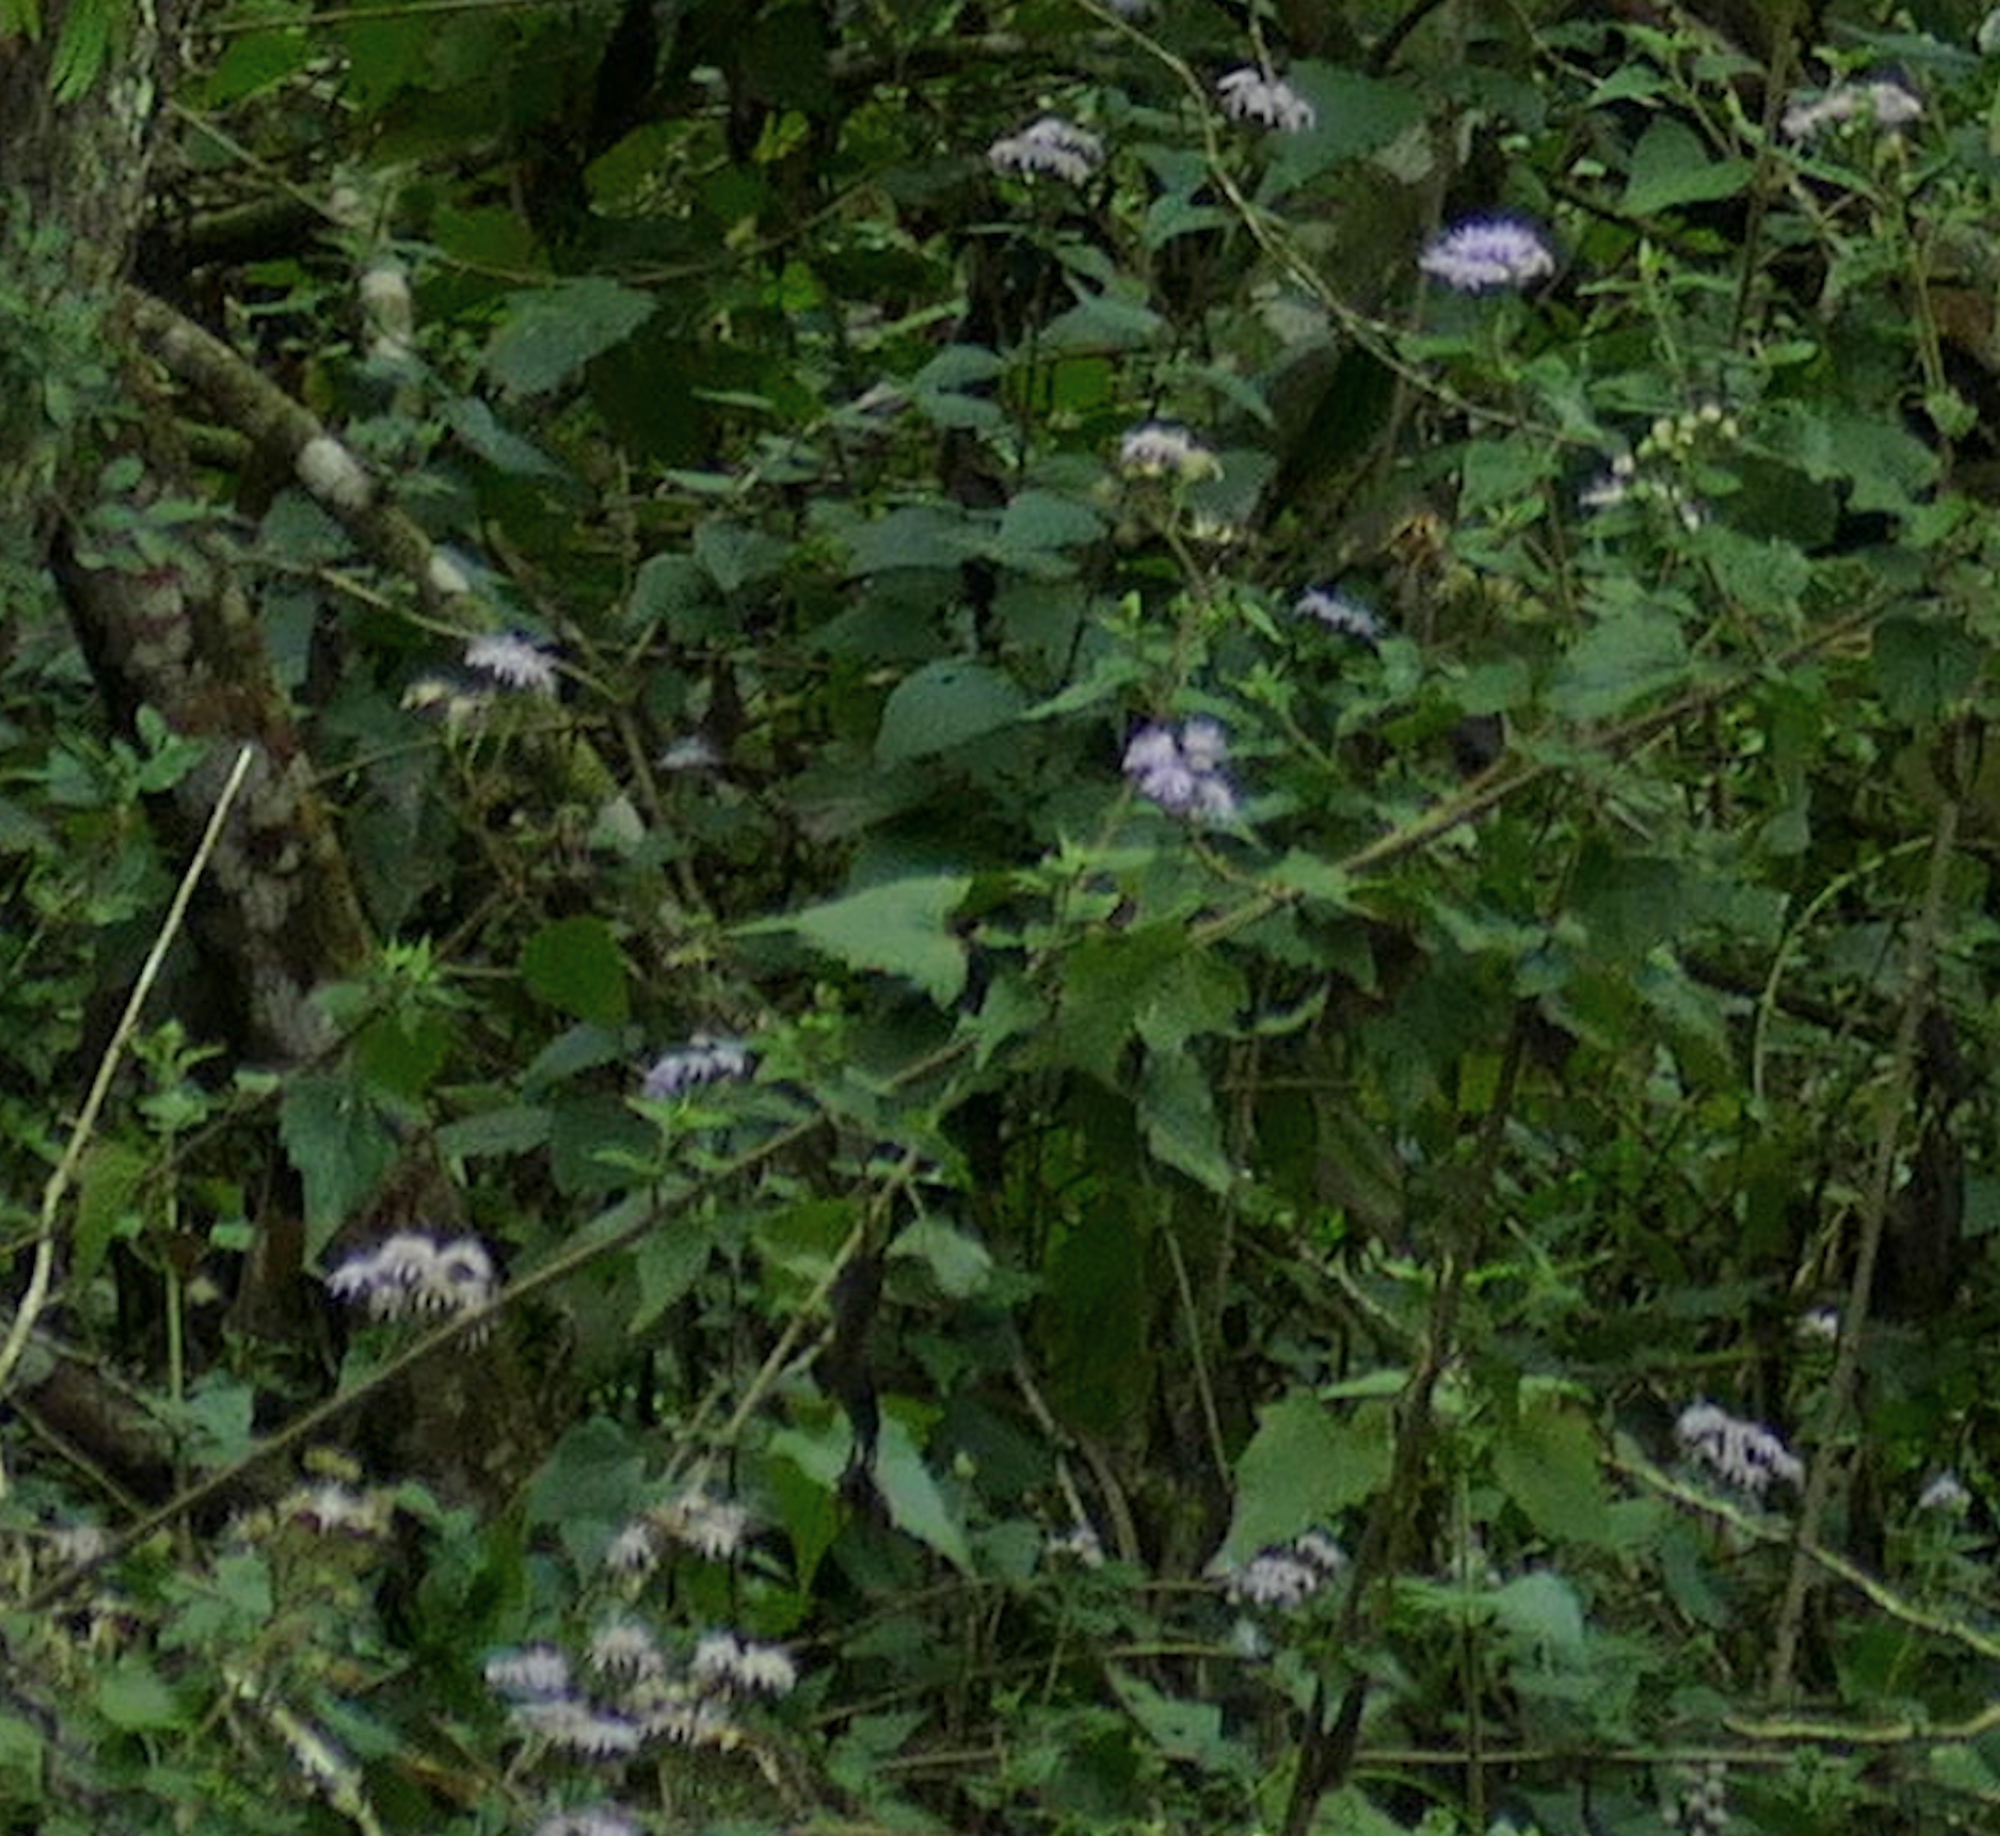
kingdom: Plantae
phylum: Tracheophyta
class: Magnoliopsida
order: Asterales
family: Asteraceae
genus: Tamaulipa
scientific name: Tamaulipa azurea
